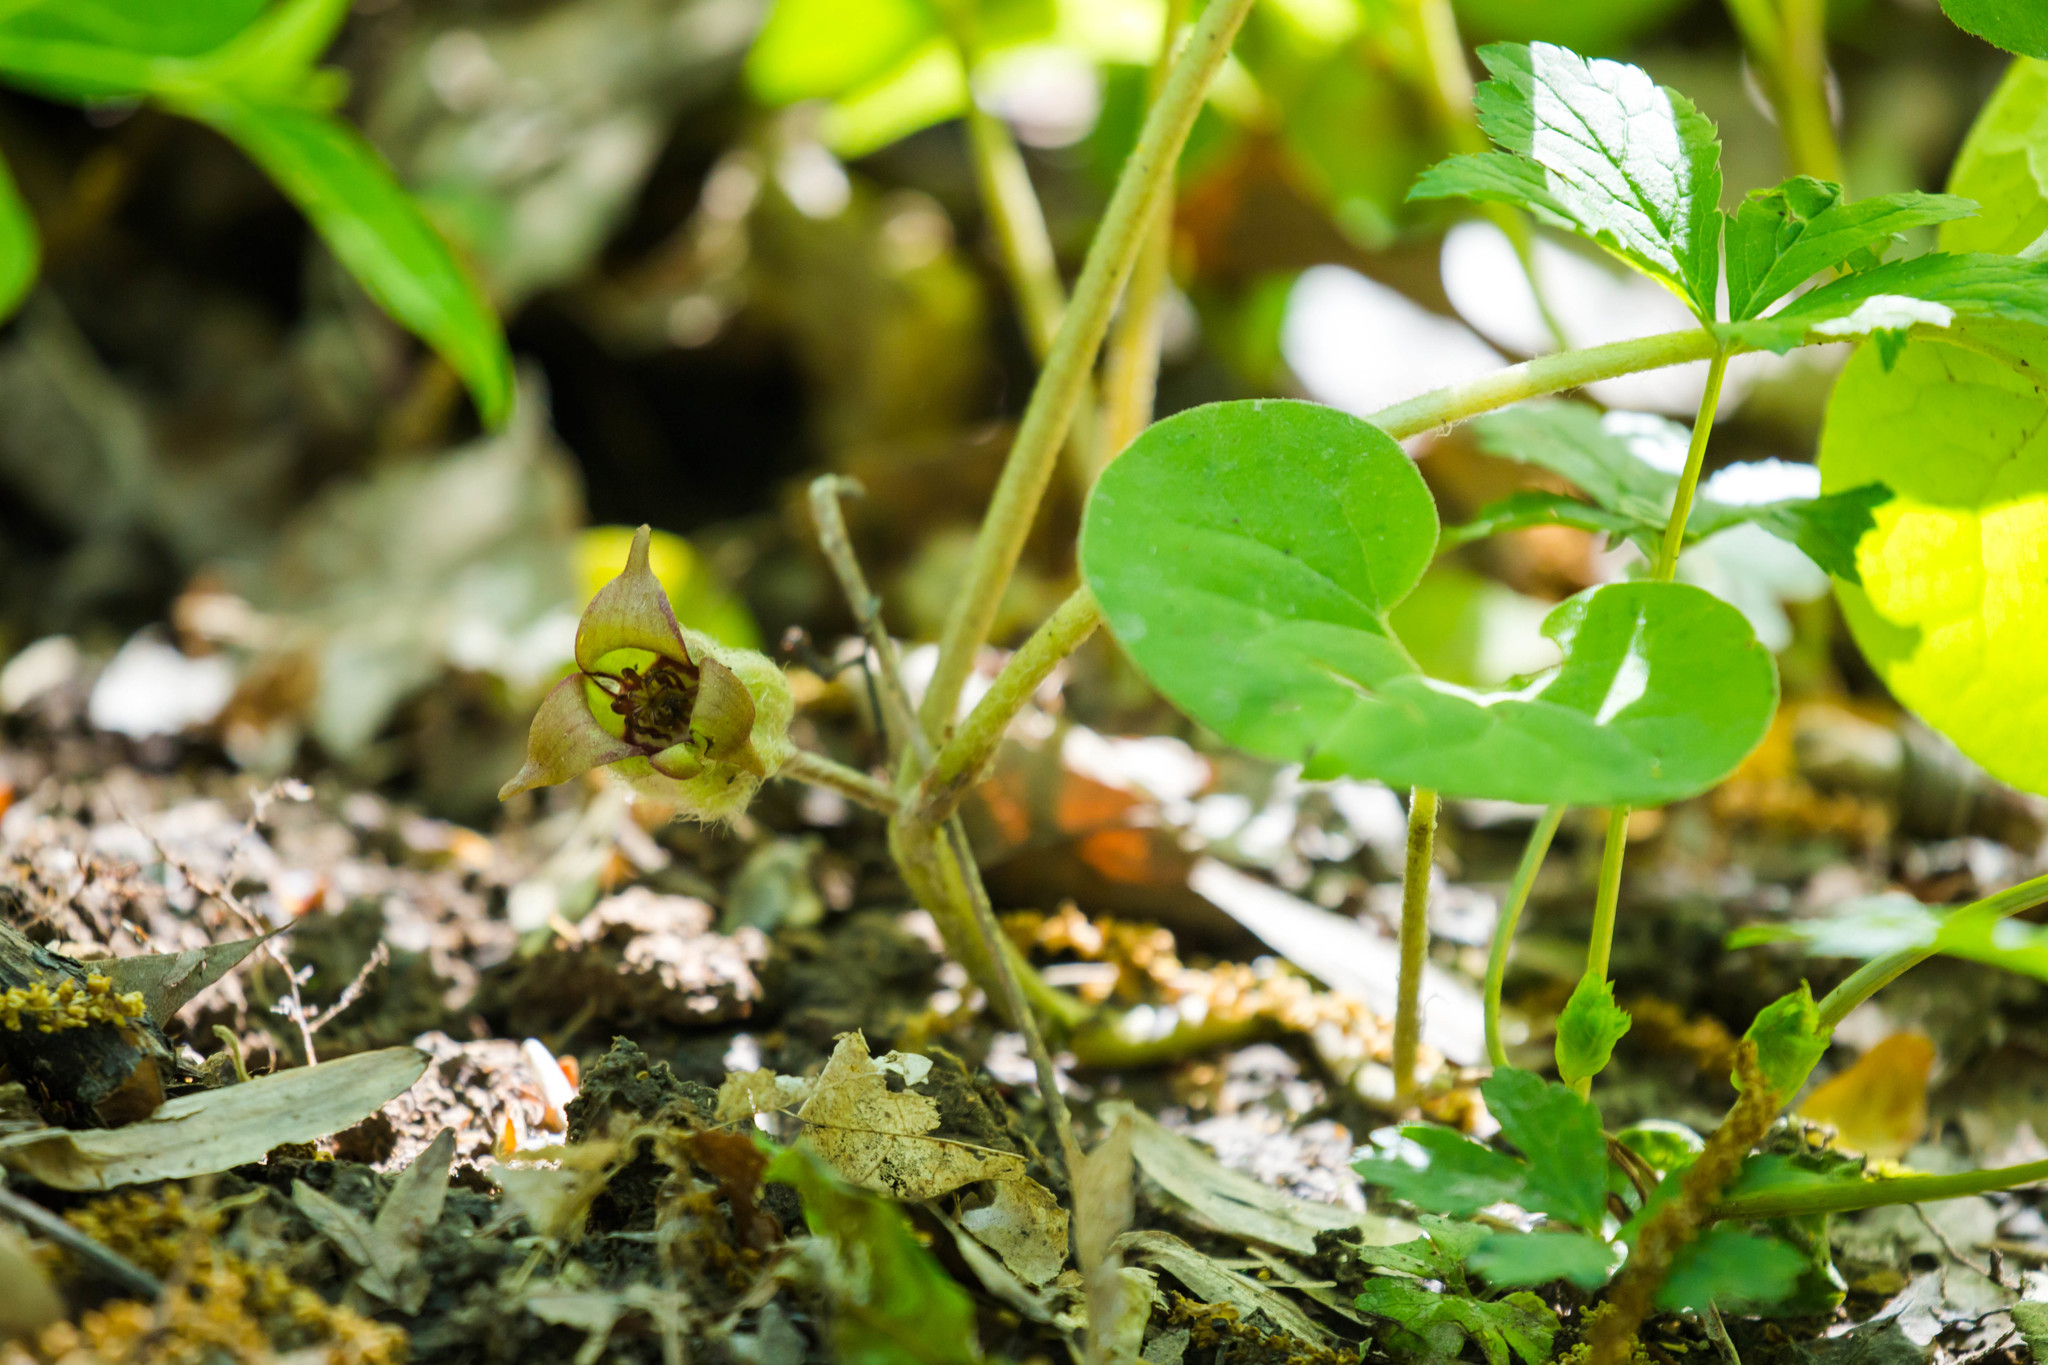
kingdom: Plantae
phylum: Tracheophyta
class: Magnoliopsida
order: Piperales
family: Aristolochiaceae
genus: Asarum
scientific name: Asarum canadense
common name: Wild ginger
